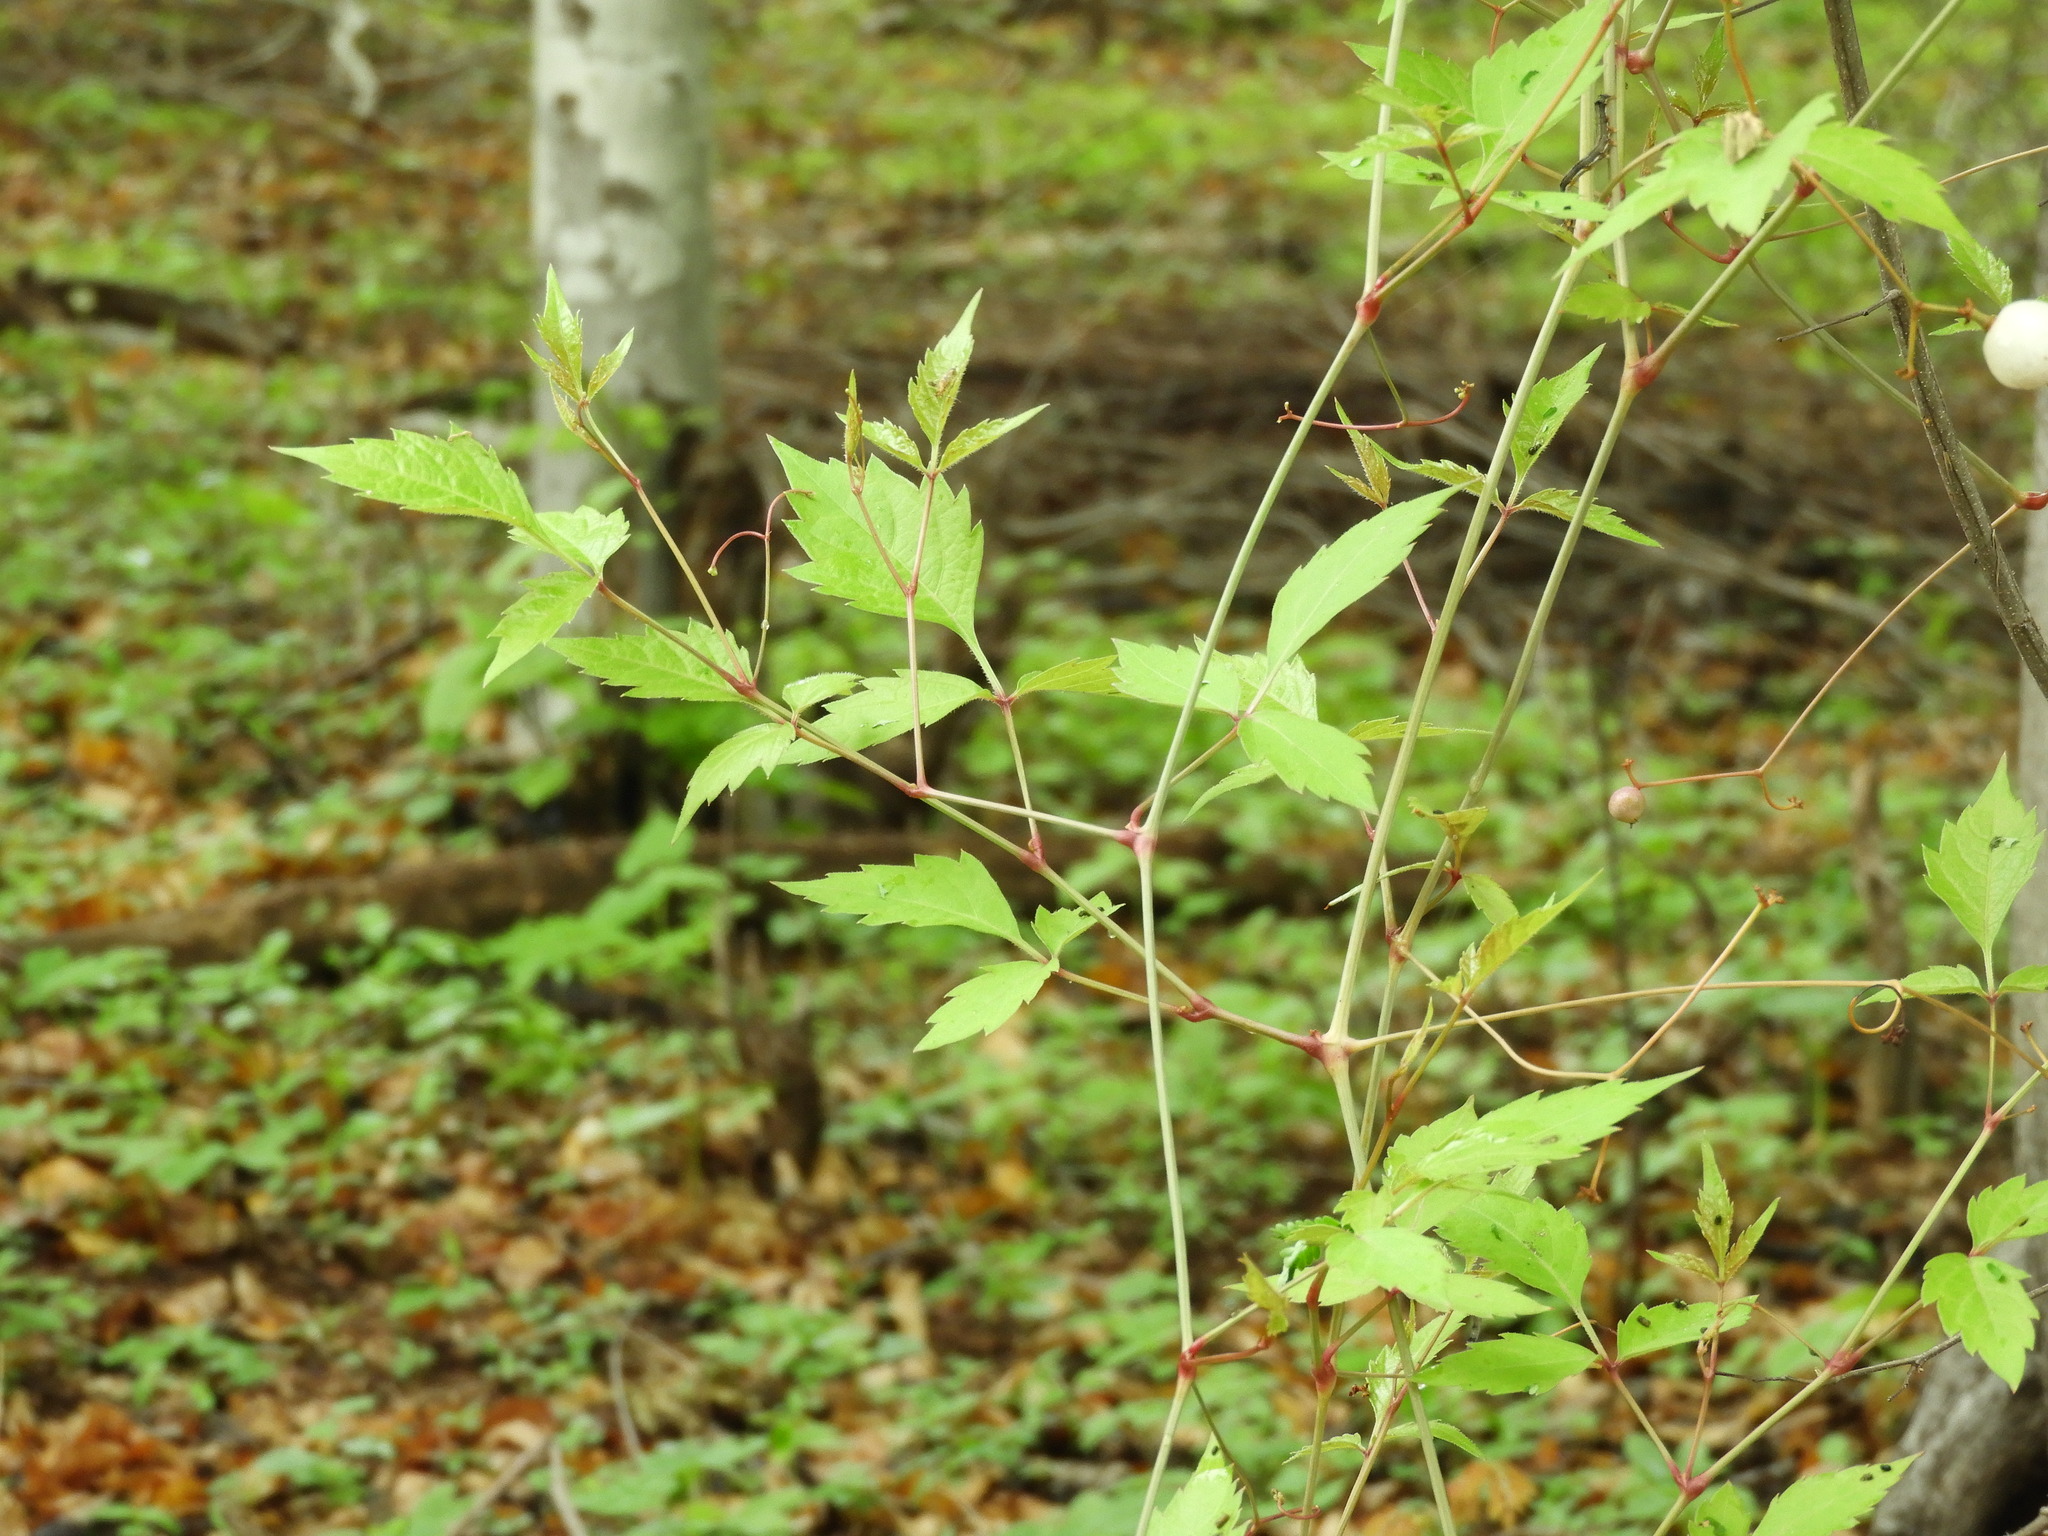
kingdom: Plantae
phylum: Tracheophyta
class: Magnoliopsida
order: Vitales
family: Vitaceae
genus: Ampelopsis
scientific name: Ampelopsis denudata
